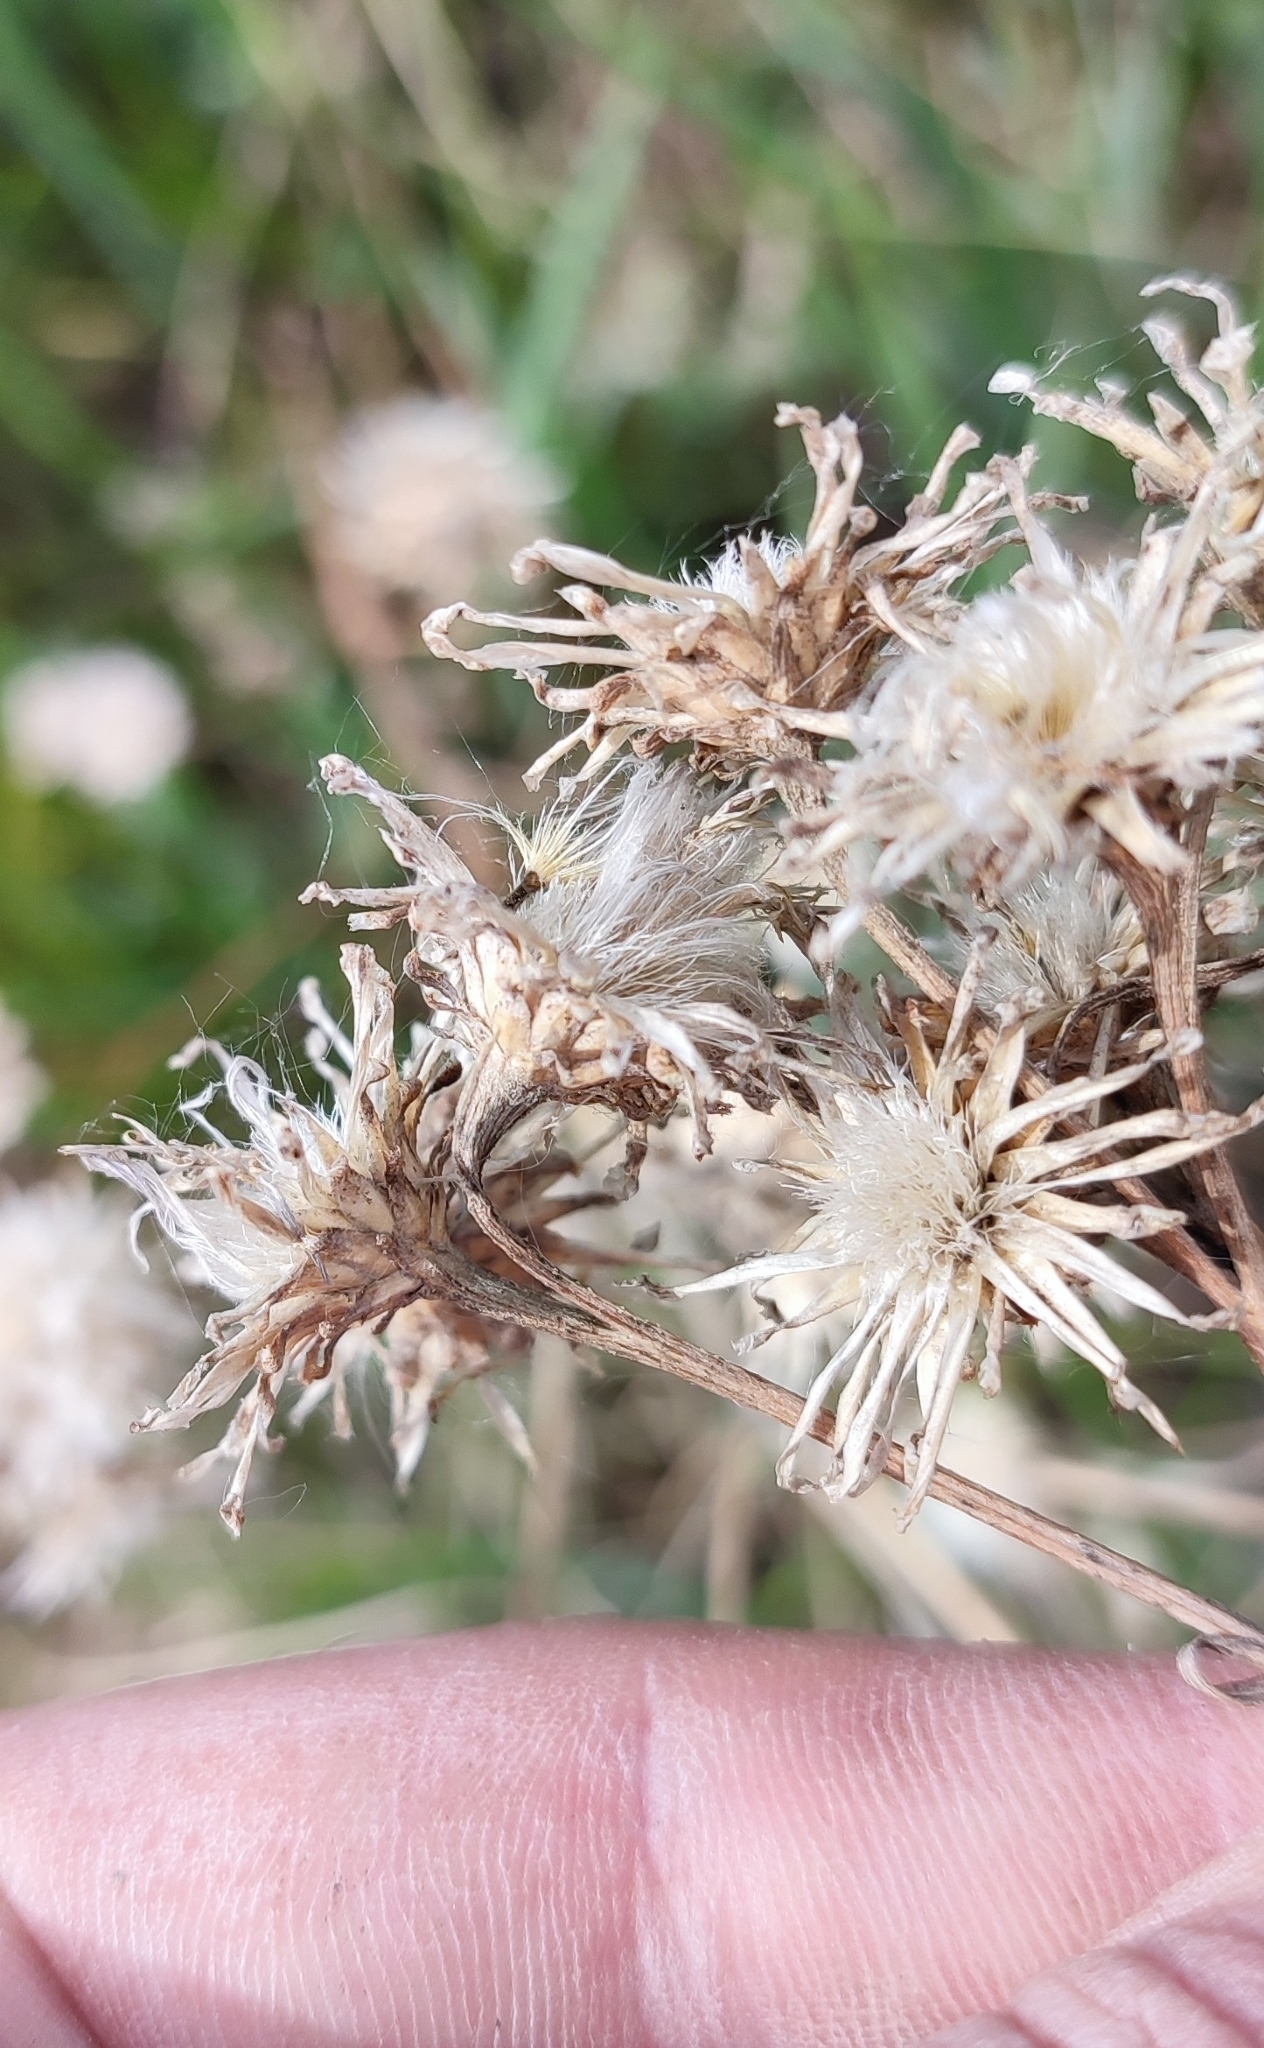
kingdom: Plantae
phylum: Tracheophyta
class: Magnoliopsida
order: Asterales
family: Asteraceae
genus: Saussurea
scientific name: Saussurea amara
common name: Alberta sawwort
